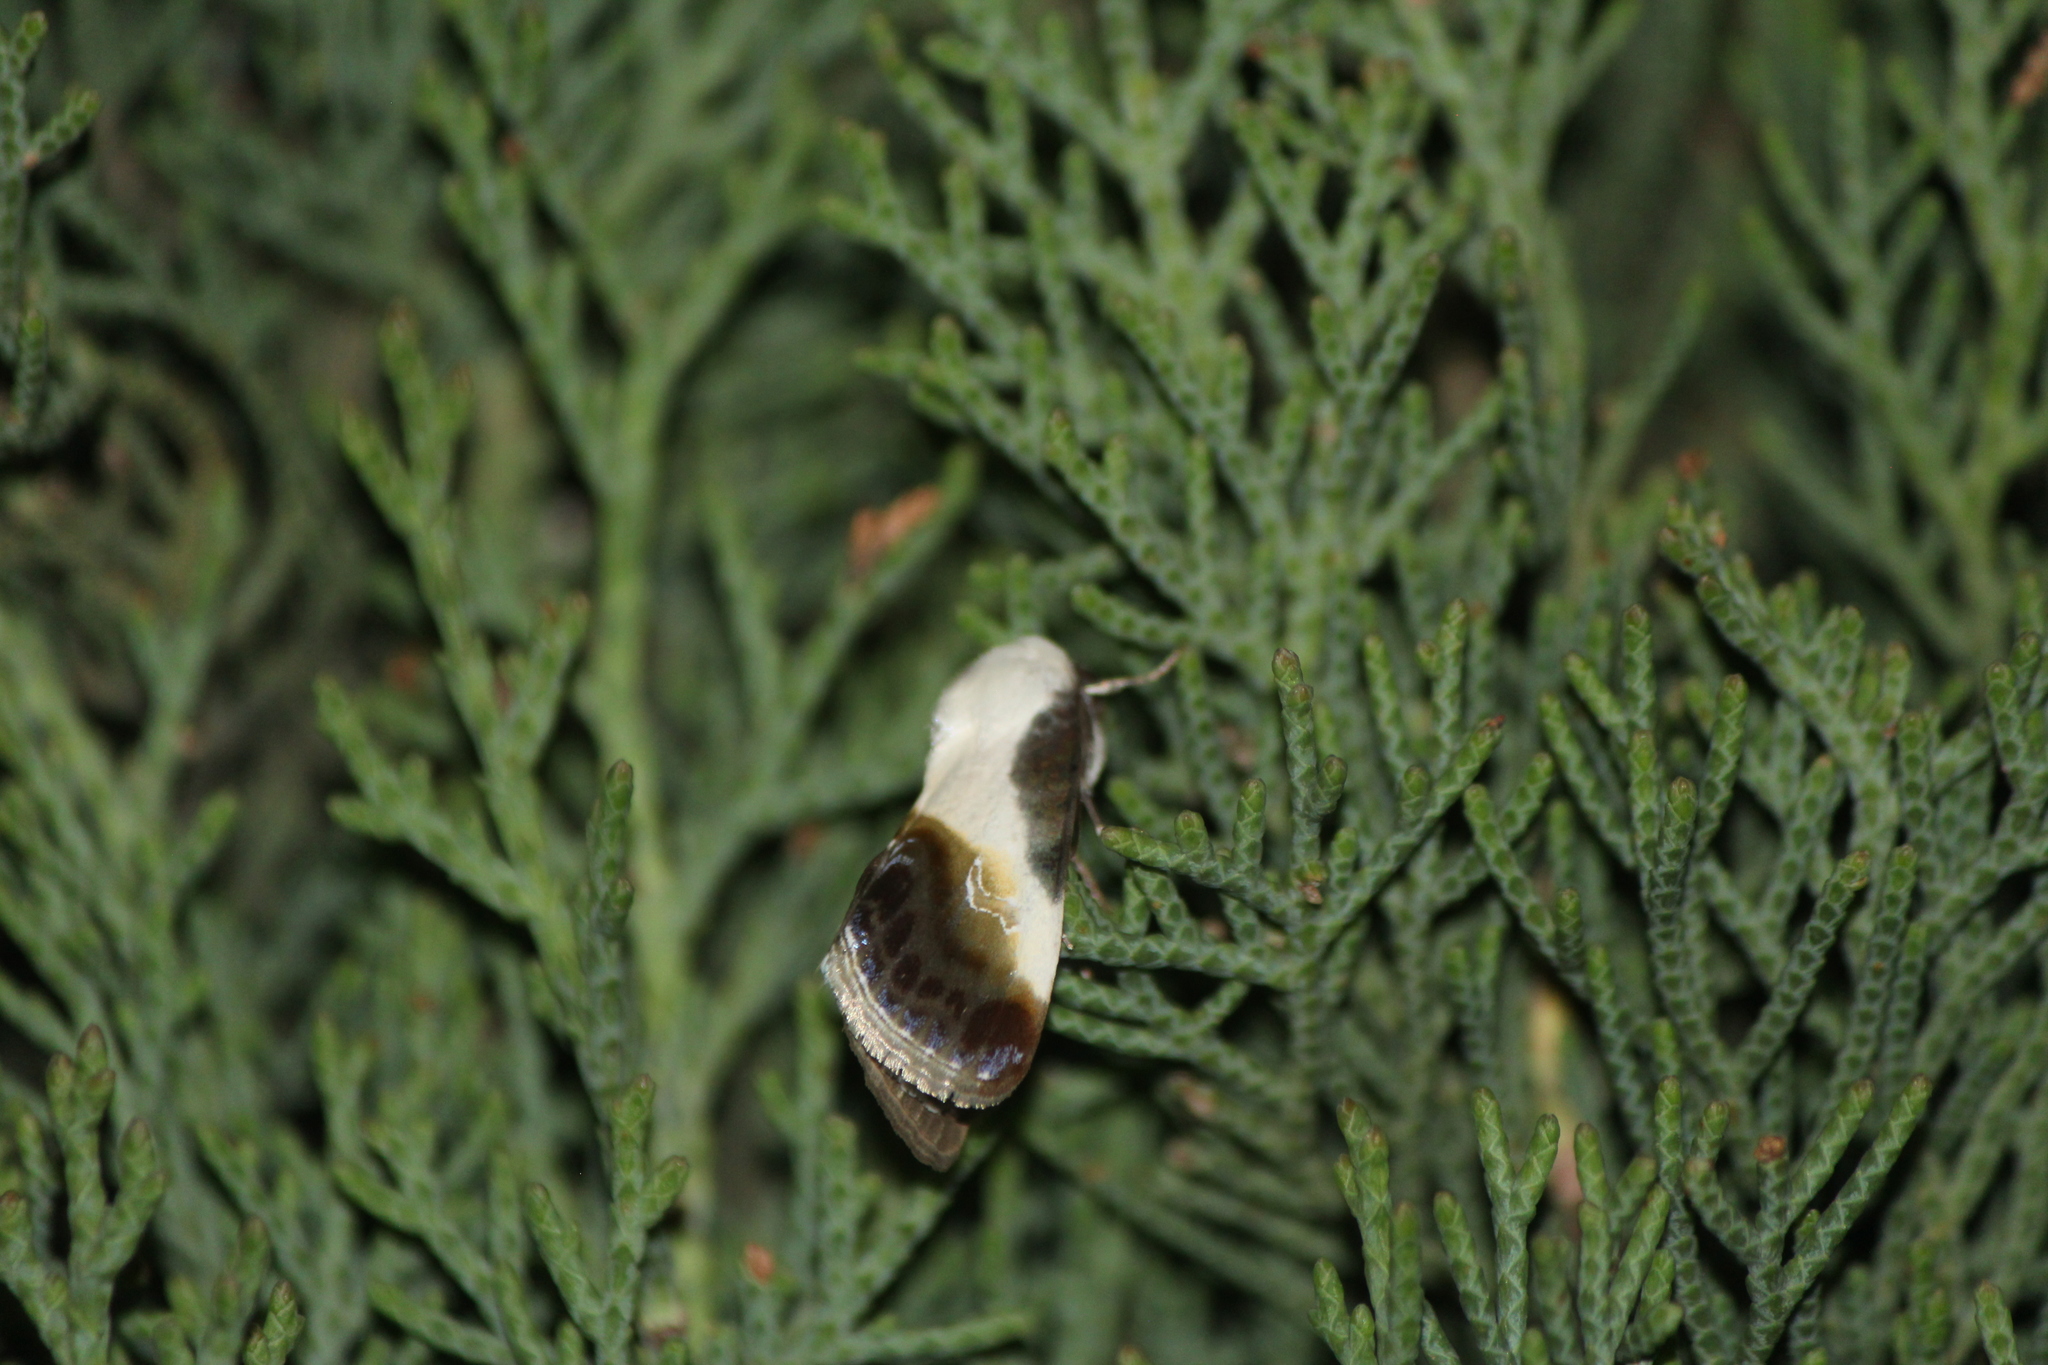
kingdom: Animalia
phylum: Arthropoda
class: Insecta
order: Lepidoptera
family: Noctuidae
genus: Acontia
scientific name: Acontia jaliscana
